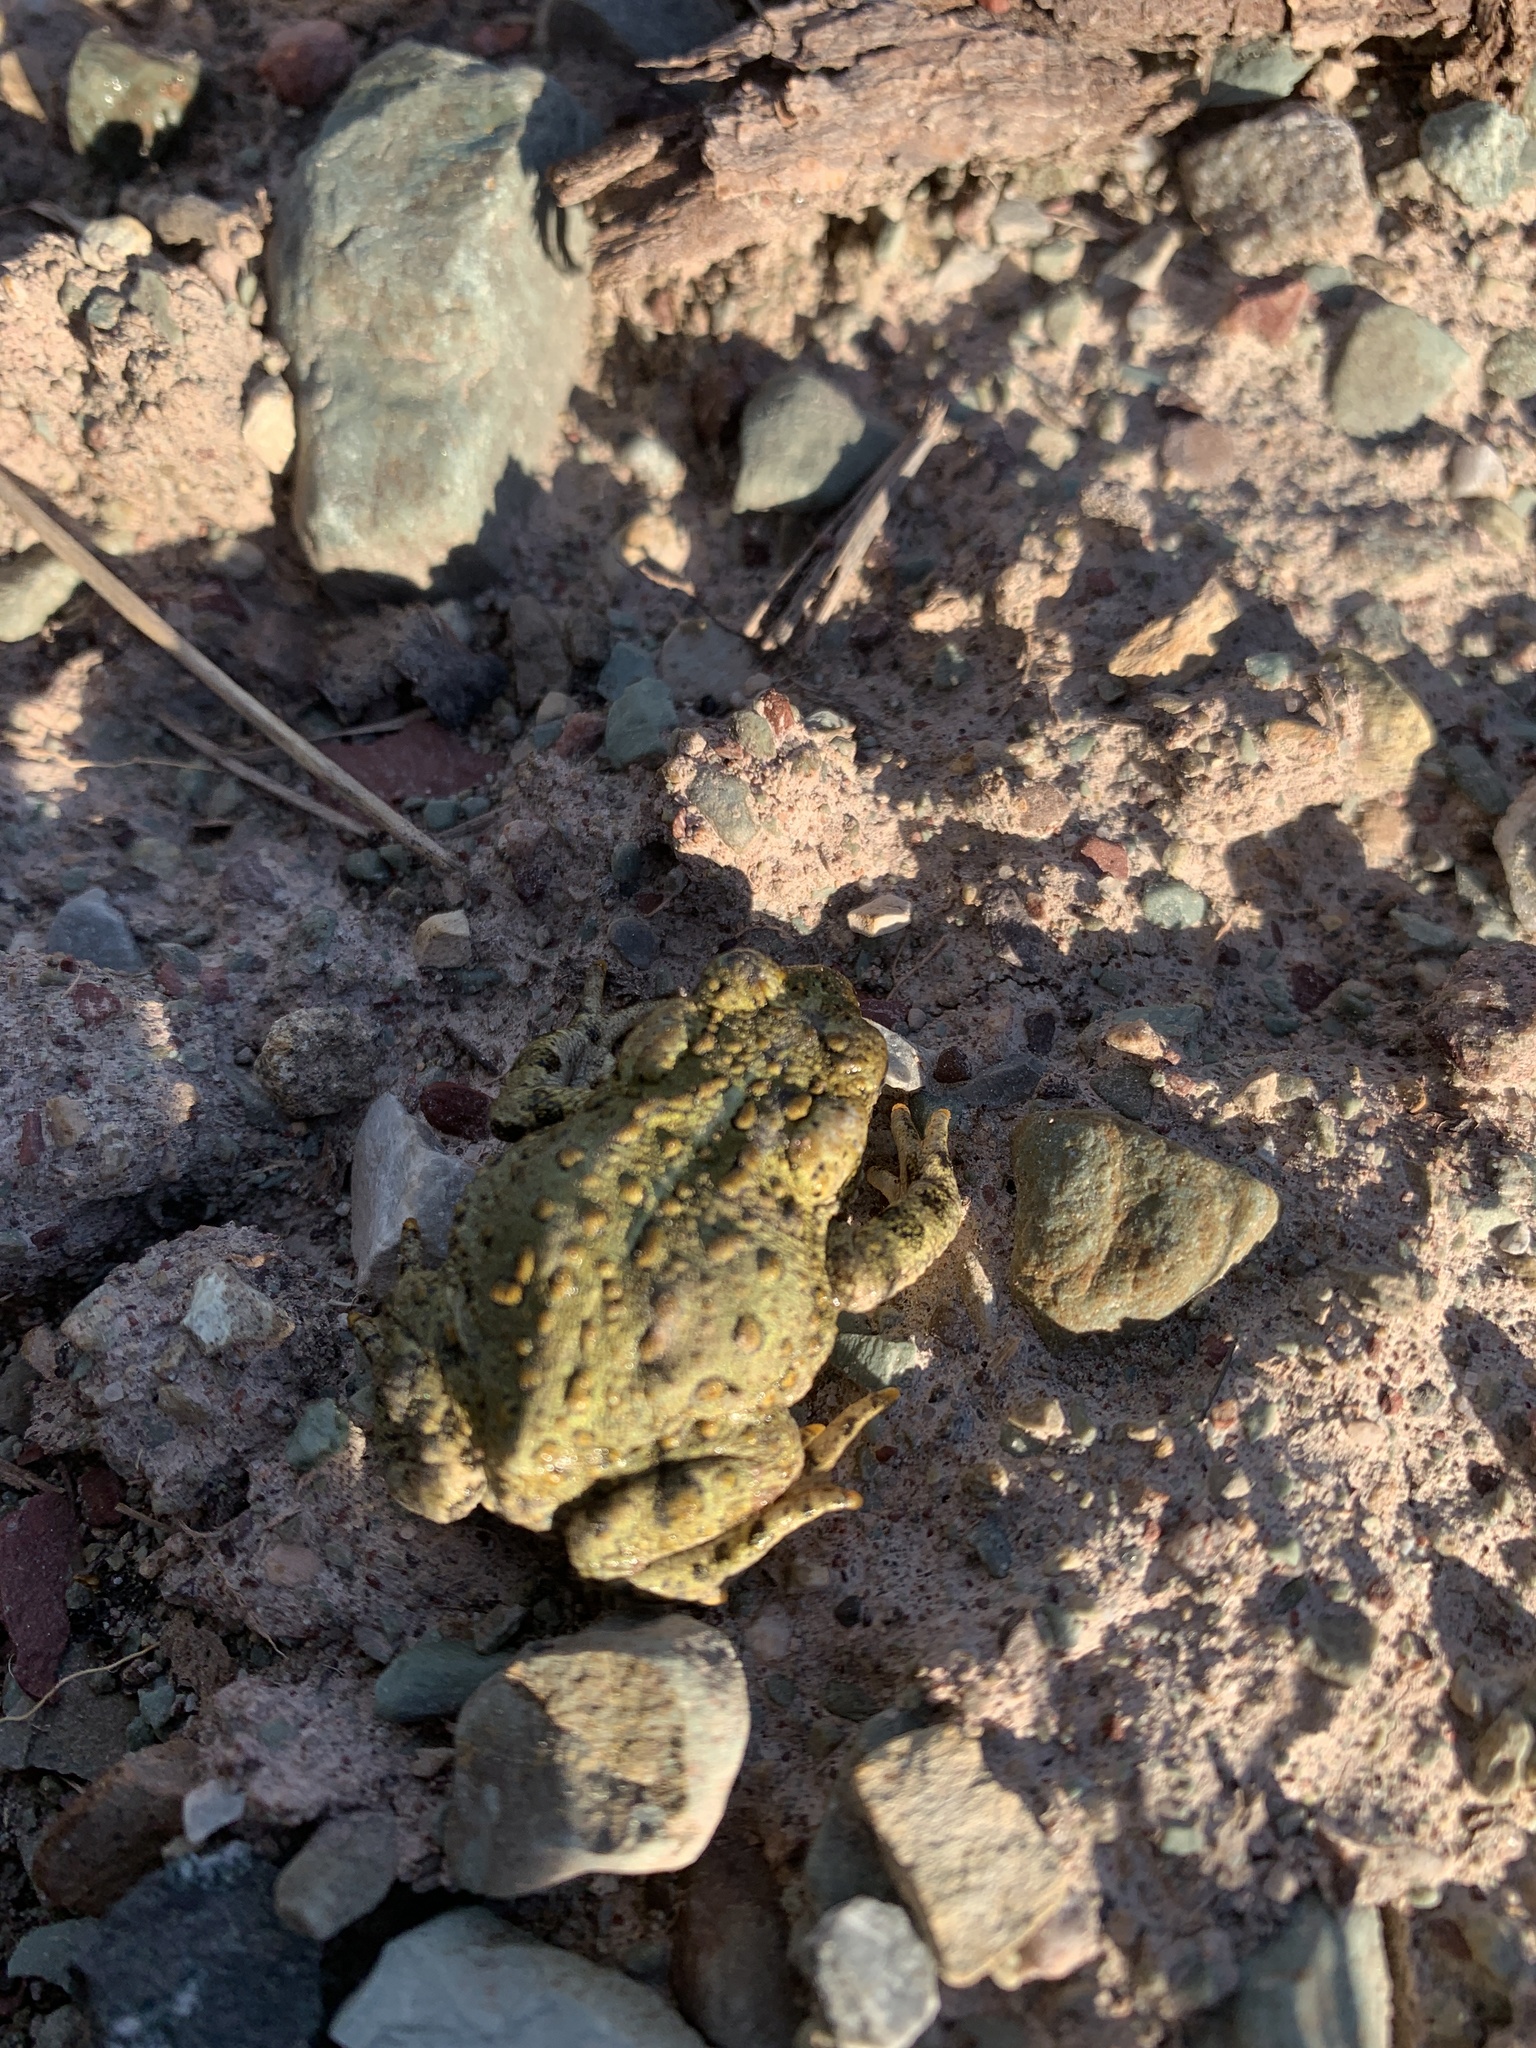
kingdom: Animalia
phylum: Chordata
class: Amphibia
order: Anura
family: Bufonidae
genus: Anaxyrus
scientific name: Anaxyrus boreas
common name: Western toad
